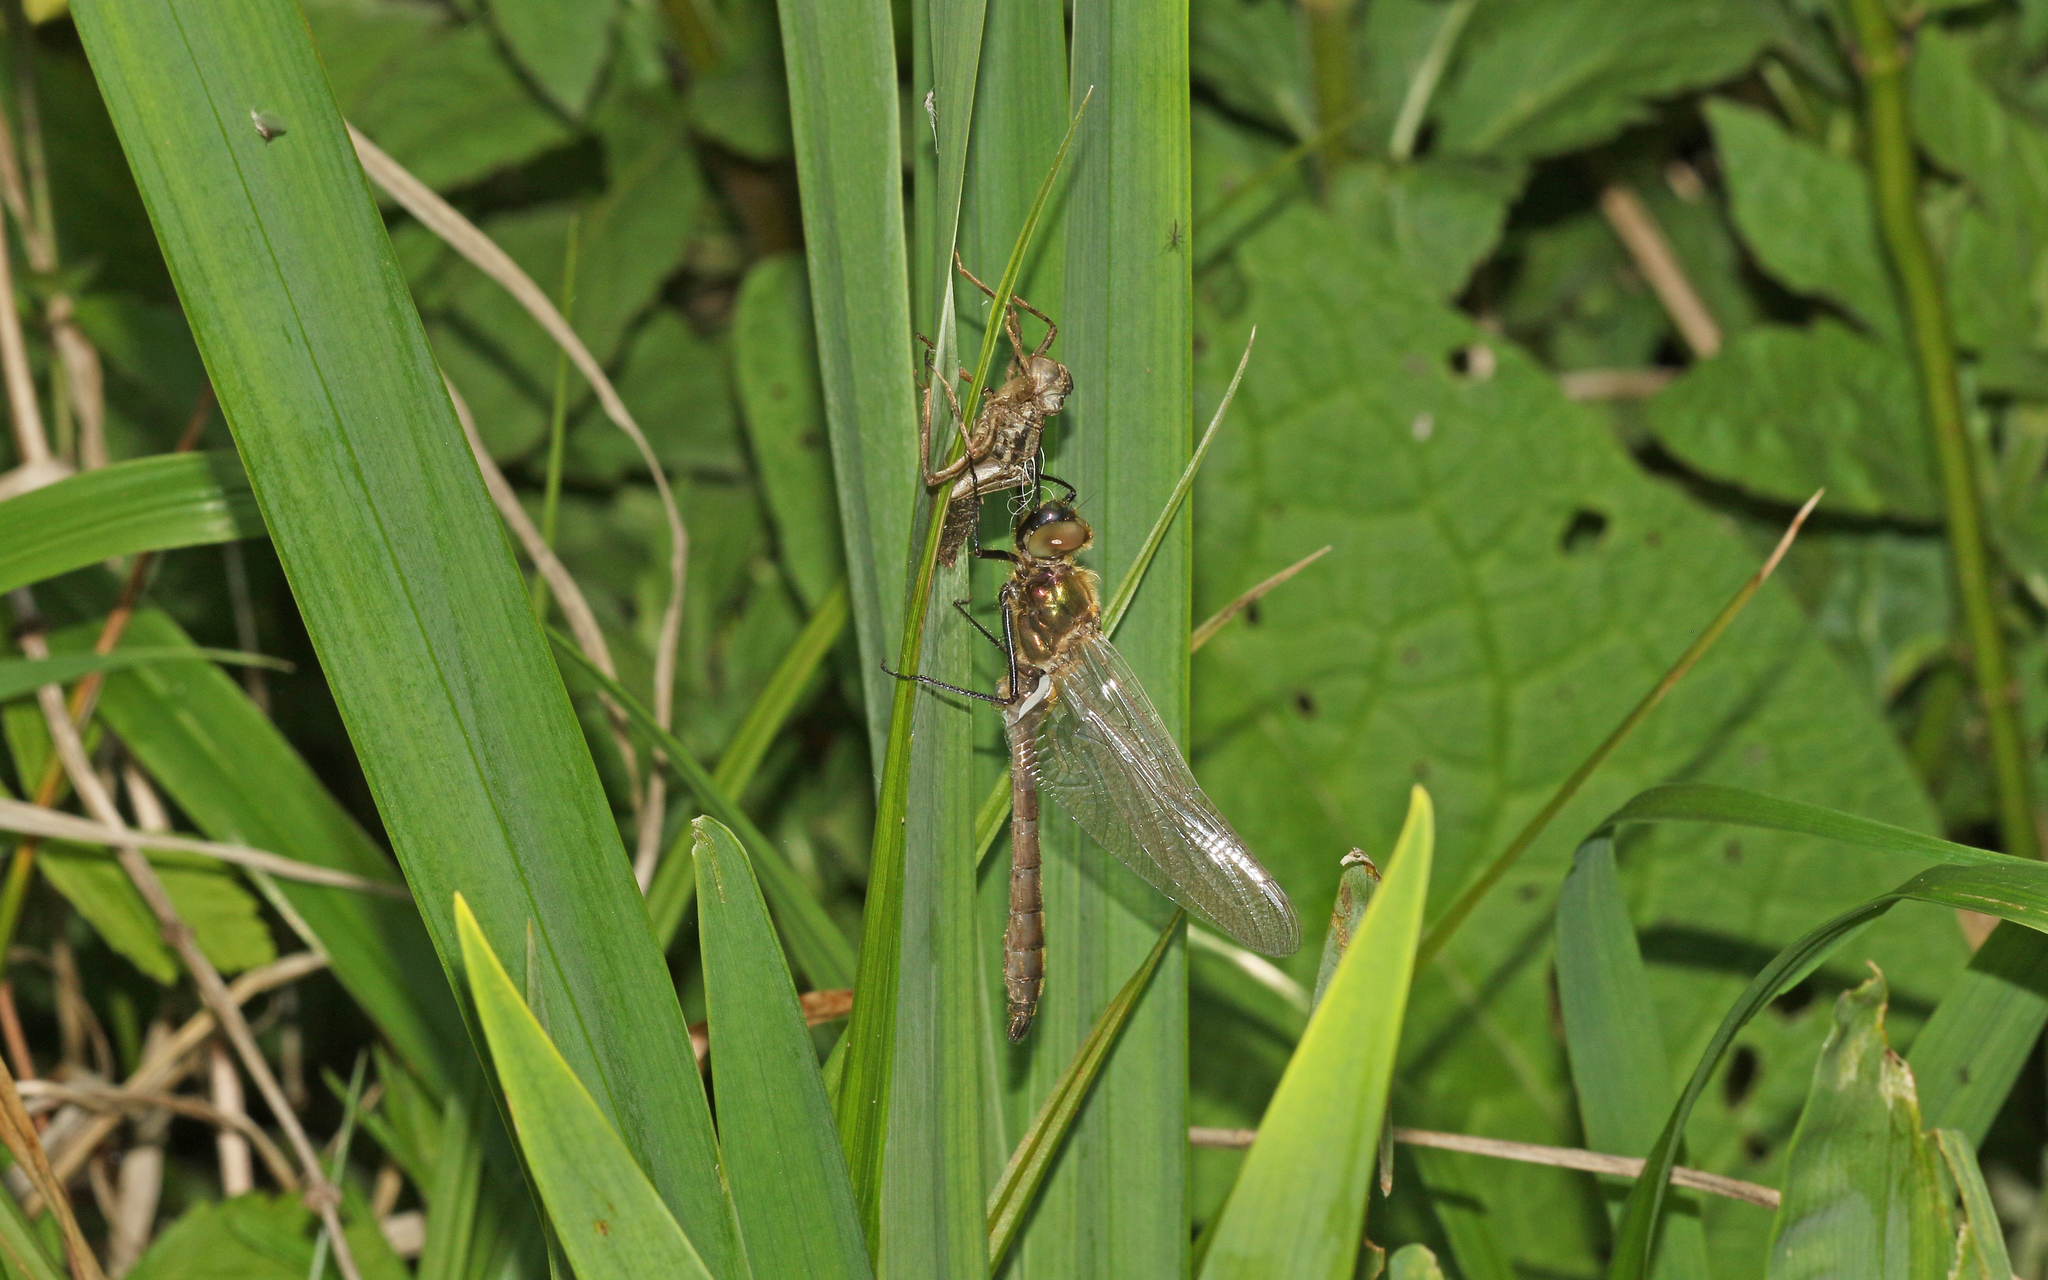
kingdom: Animalia
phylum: Arthropoda
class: Insecta
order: Odonata
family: Corduliidae
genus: Cordulia
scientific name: Cordulia aenea
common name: Downy emerald
